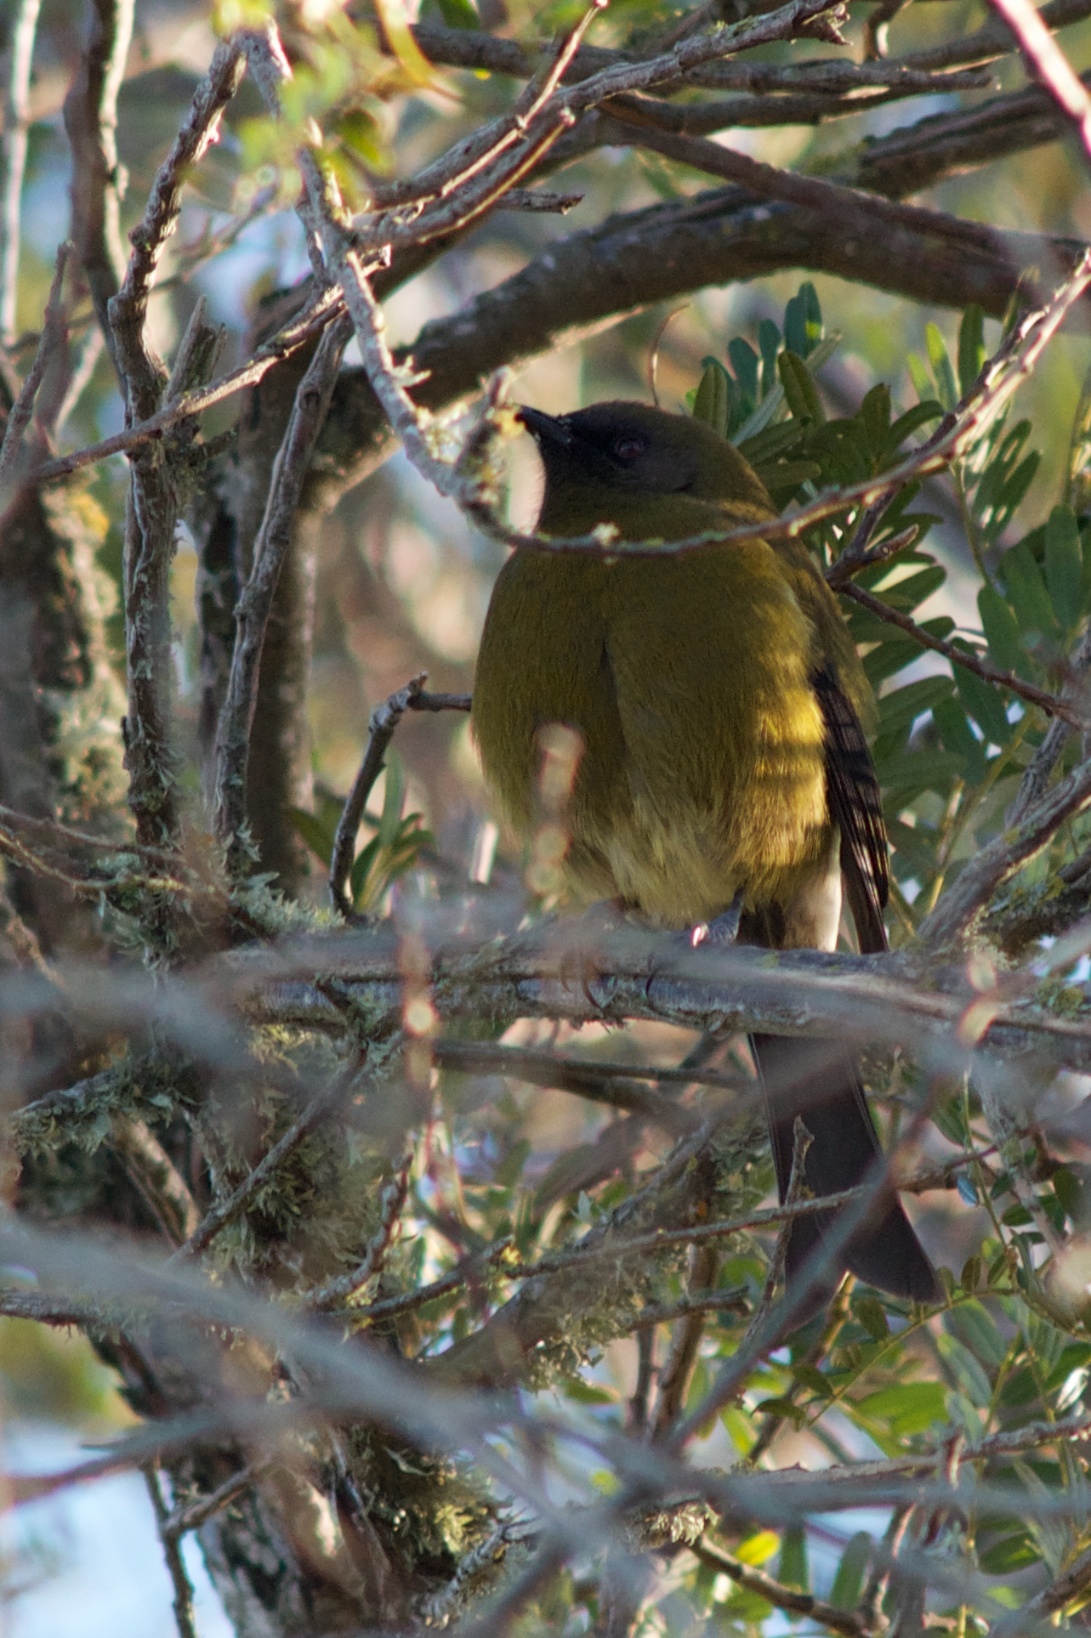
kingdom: Animalia
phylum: Chordata
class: Aves
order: Passeriformes
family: Meliphagidae
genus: Anthornis
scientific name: Anthornis melanura
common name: New zealand bellbird
